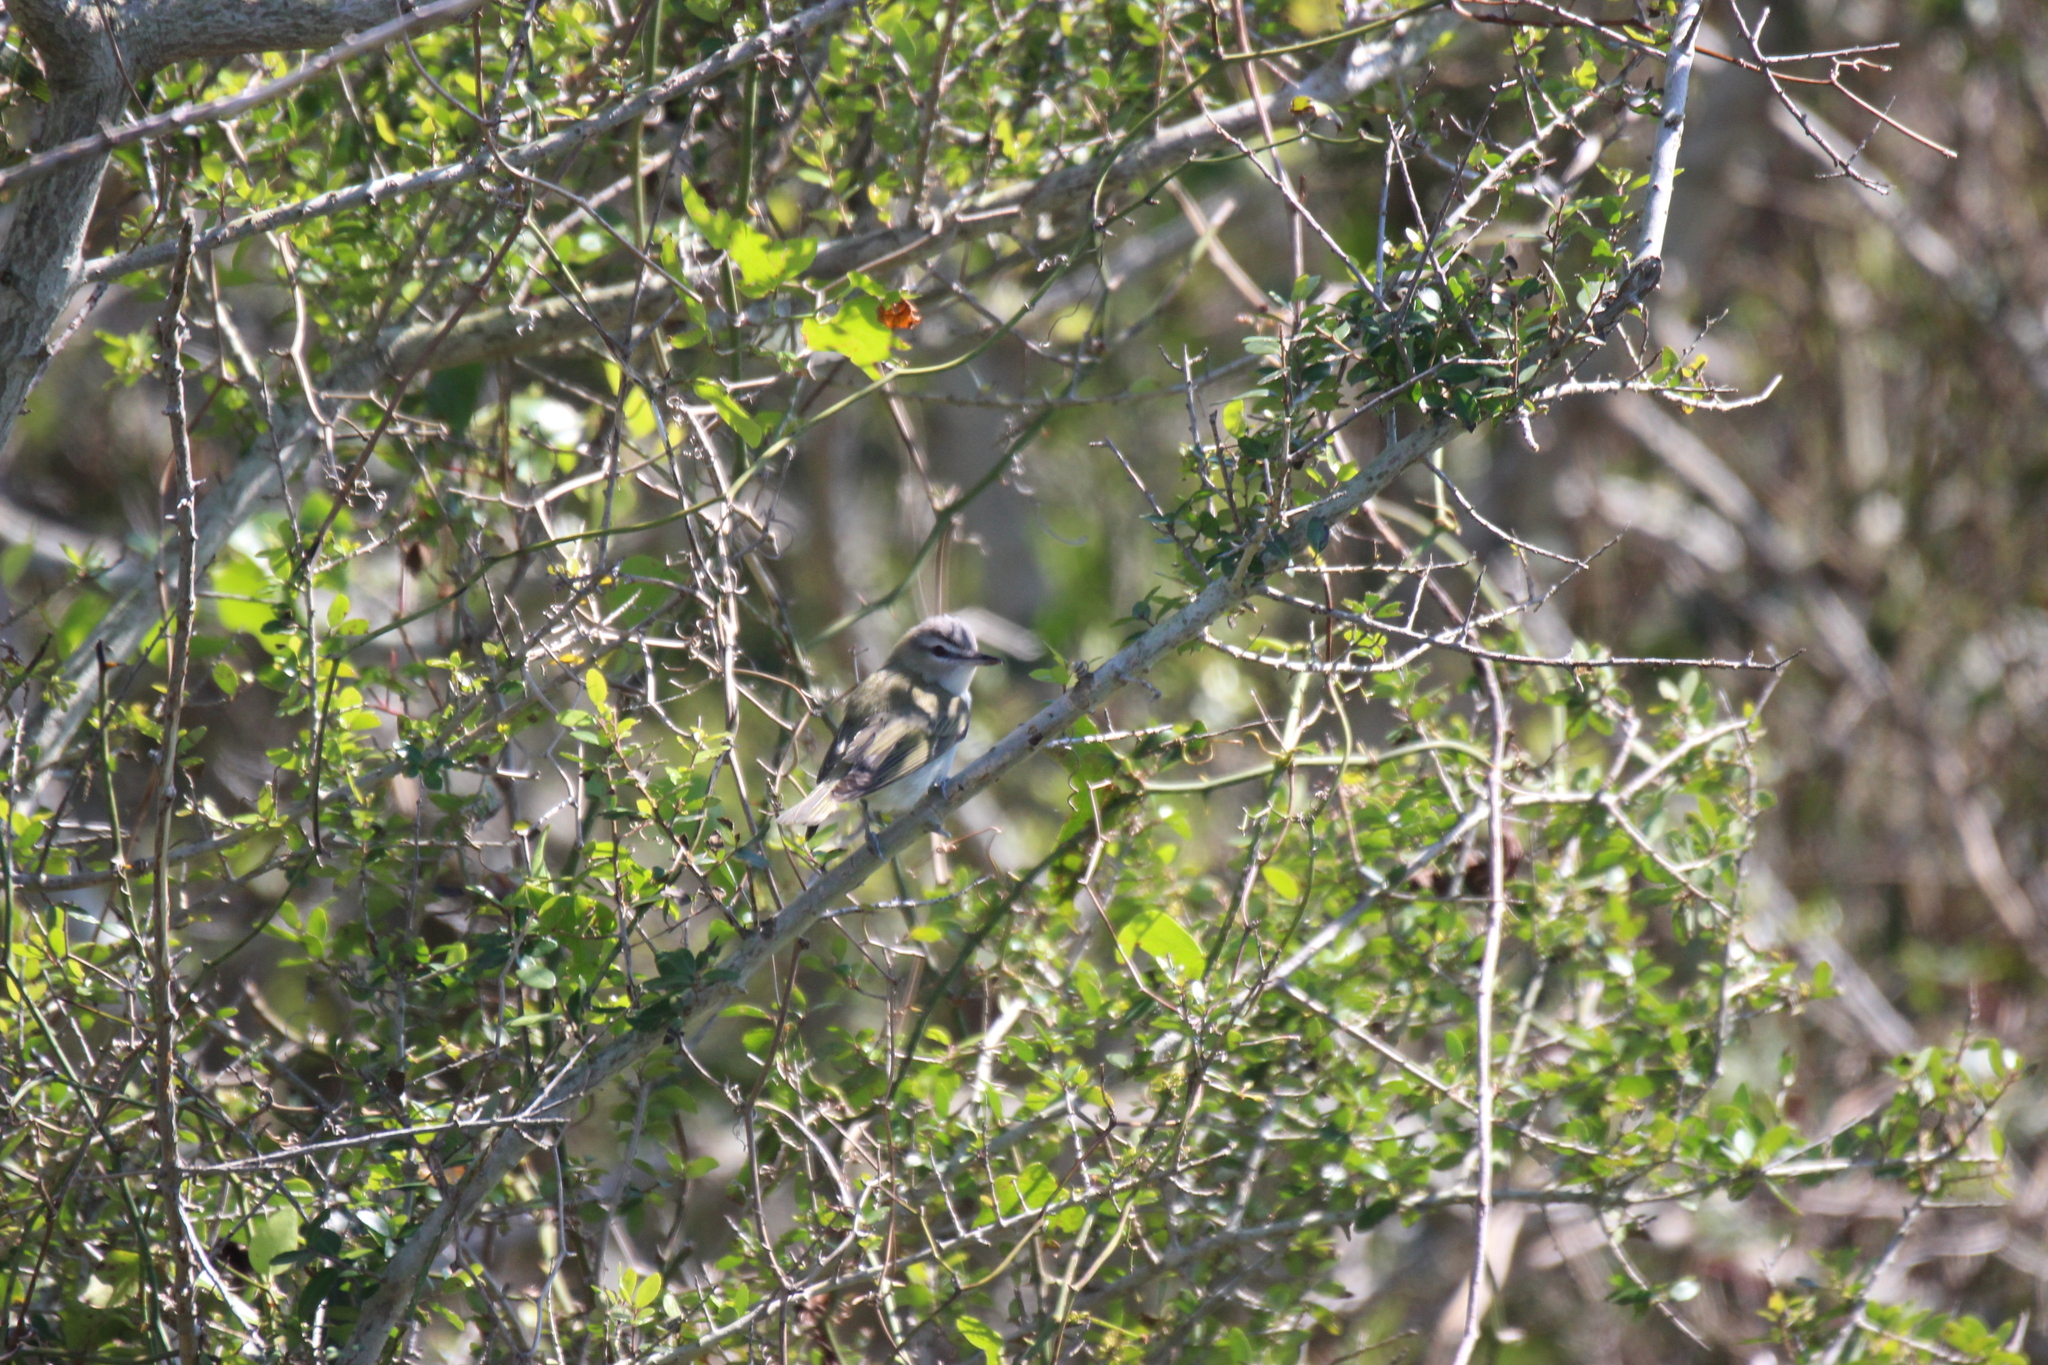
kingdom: Animalia
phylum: Chordata
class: Aves
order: Passeriformes
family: Vireonidae
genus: Vireo
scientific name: Vireo olivaceus
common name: Red-eyed vireo
